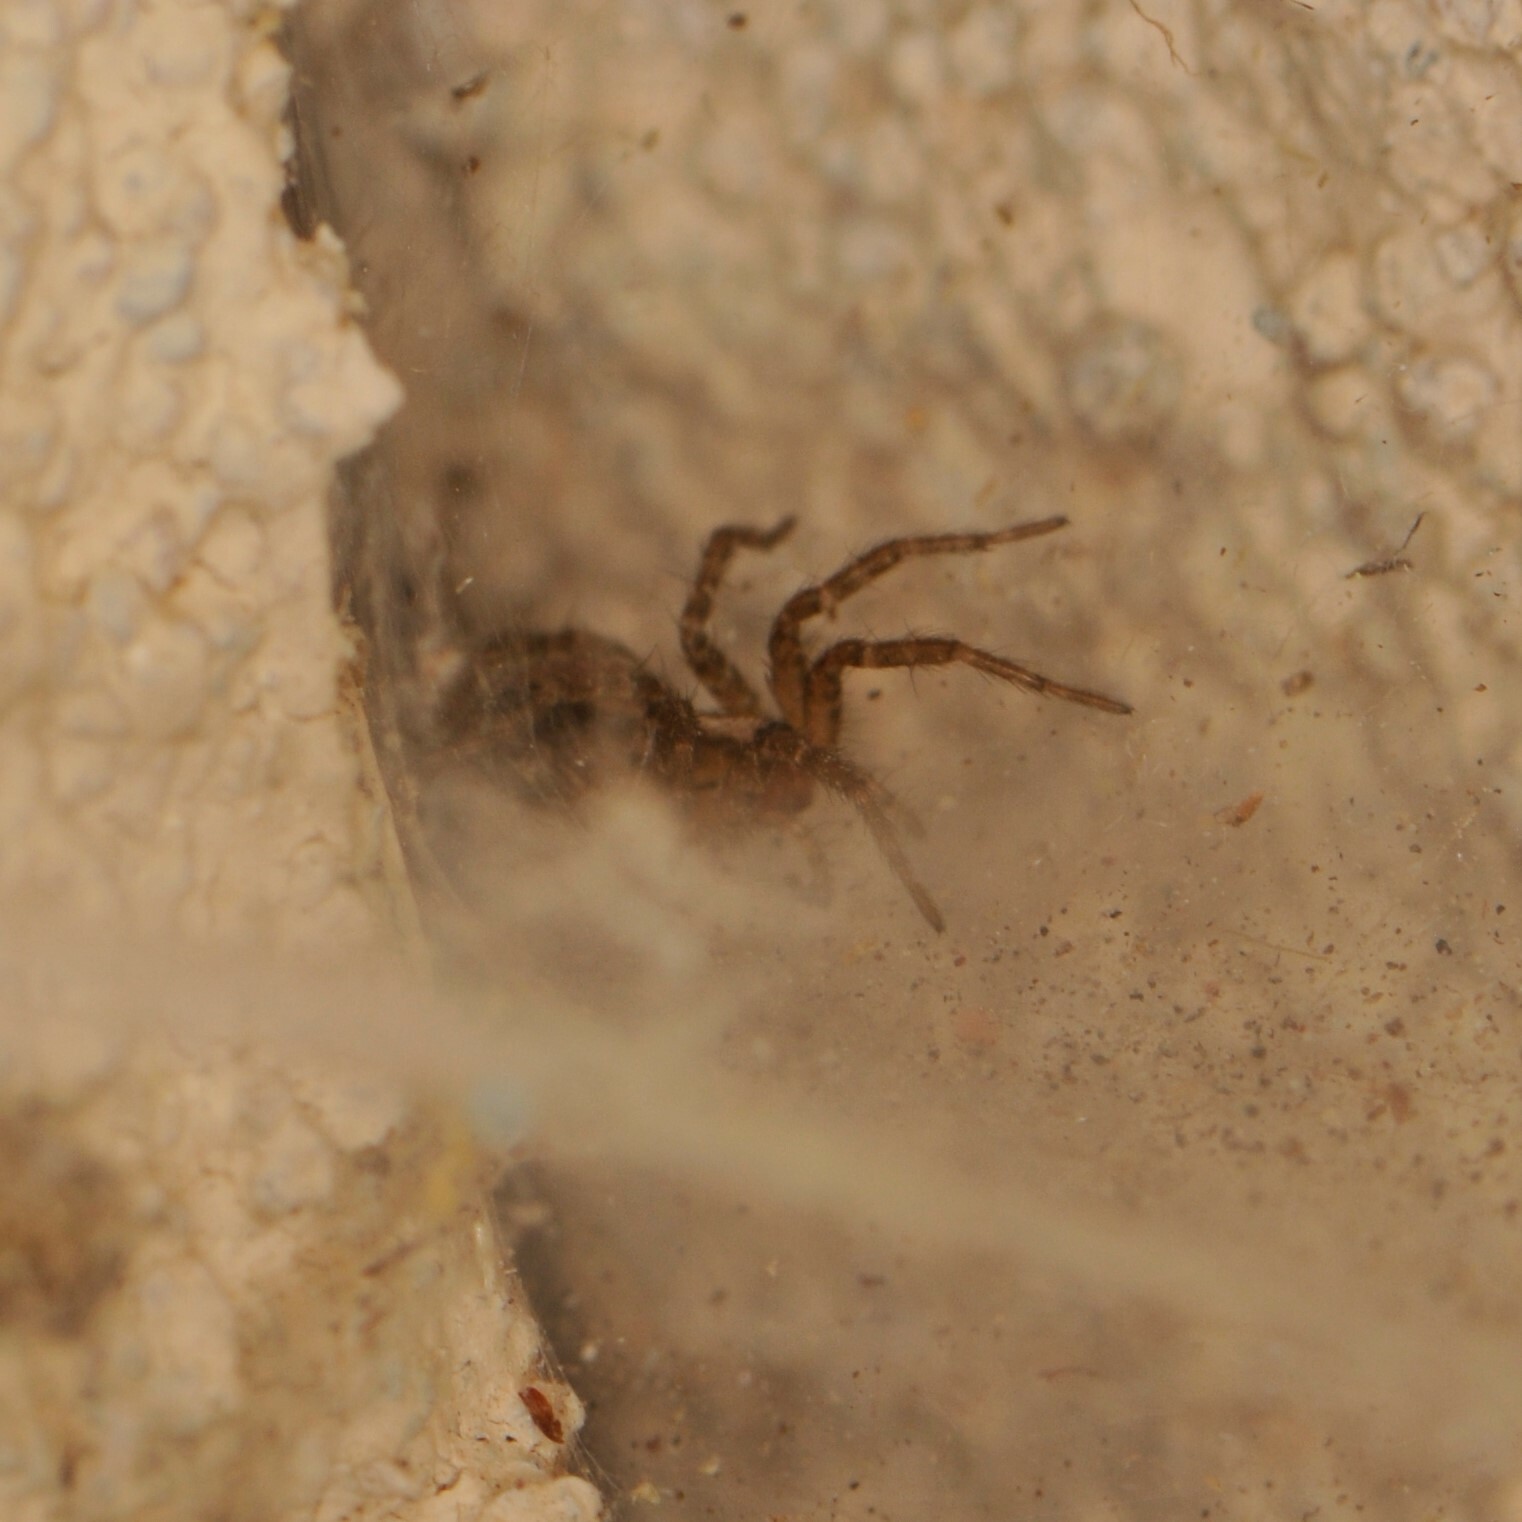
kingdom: Animalia
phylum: Arthropoda
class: Arachnida
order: Araneae
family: Agelenidae
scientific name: Agelenidae
